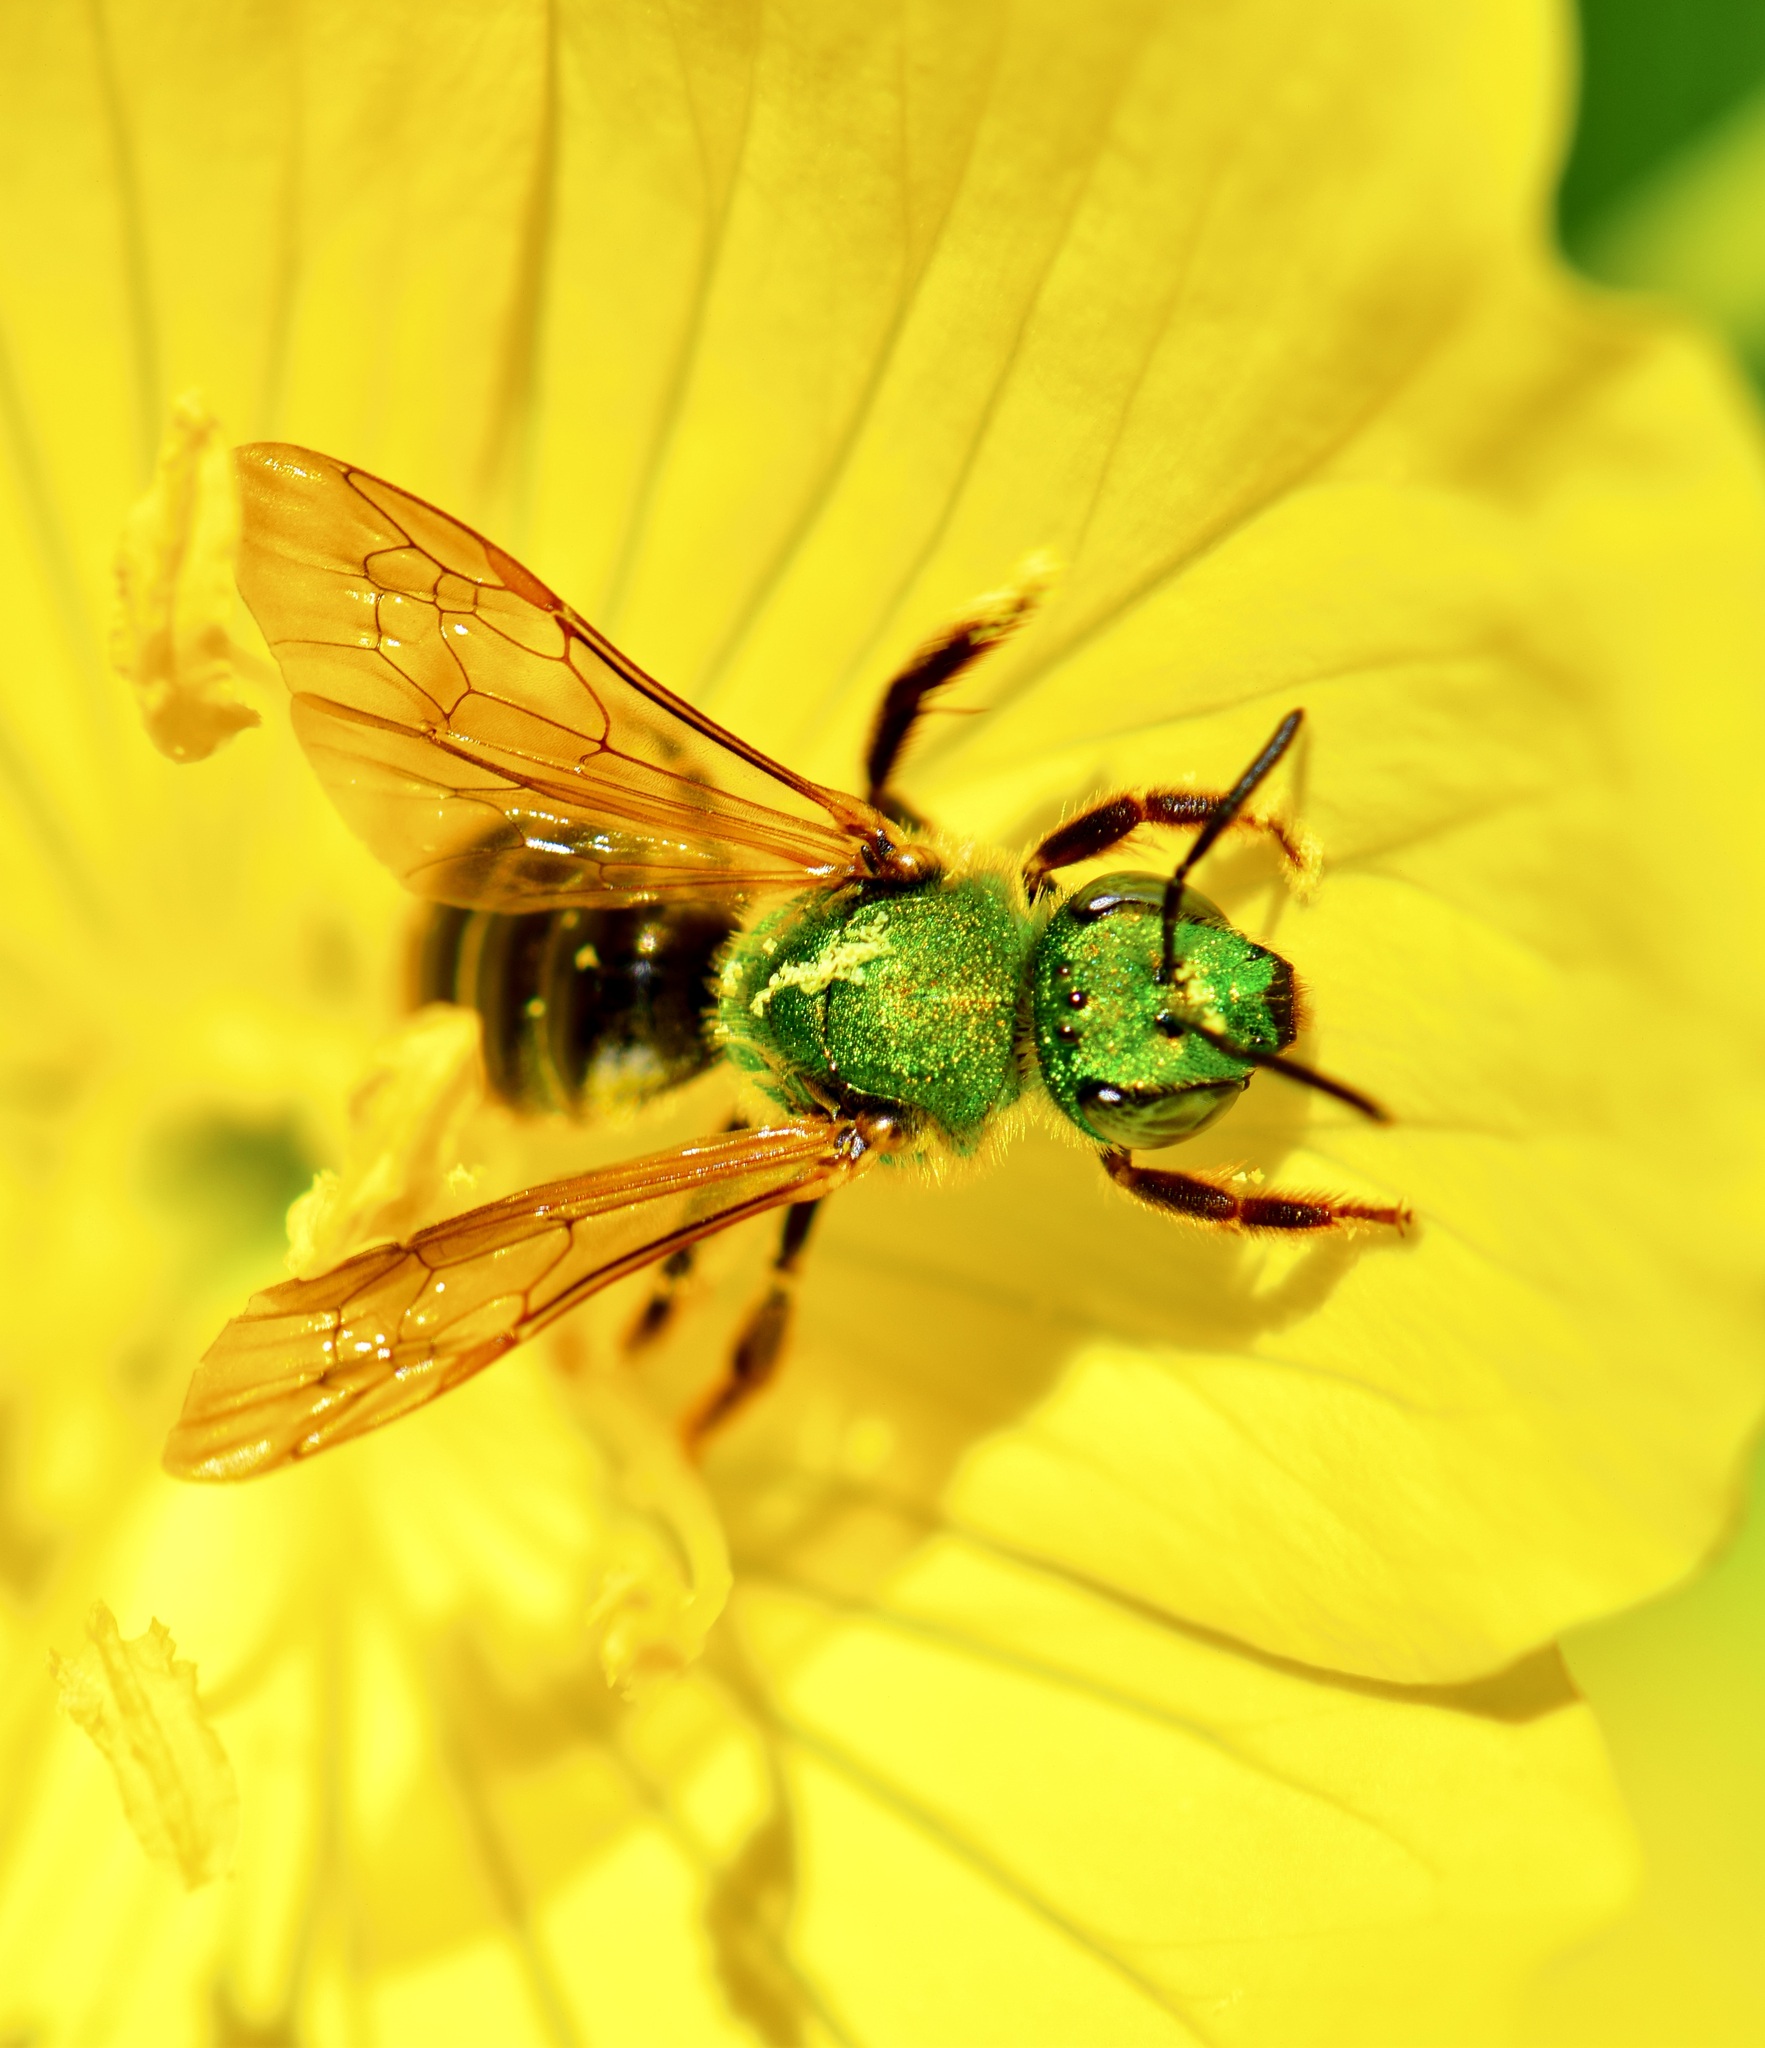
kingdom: Animalia
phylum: Arthropoda
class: Insecta
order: Hymenoptera
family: Halictidae
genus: Agapostemon
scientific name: Agapostemon virescens
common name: Bicolored striped sweat bee
